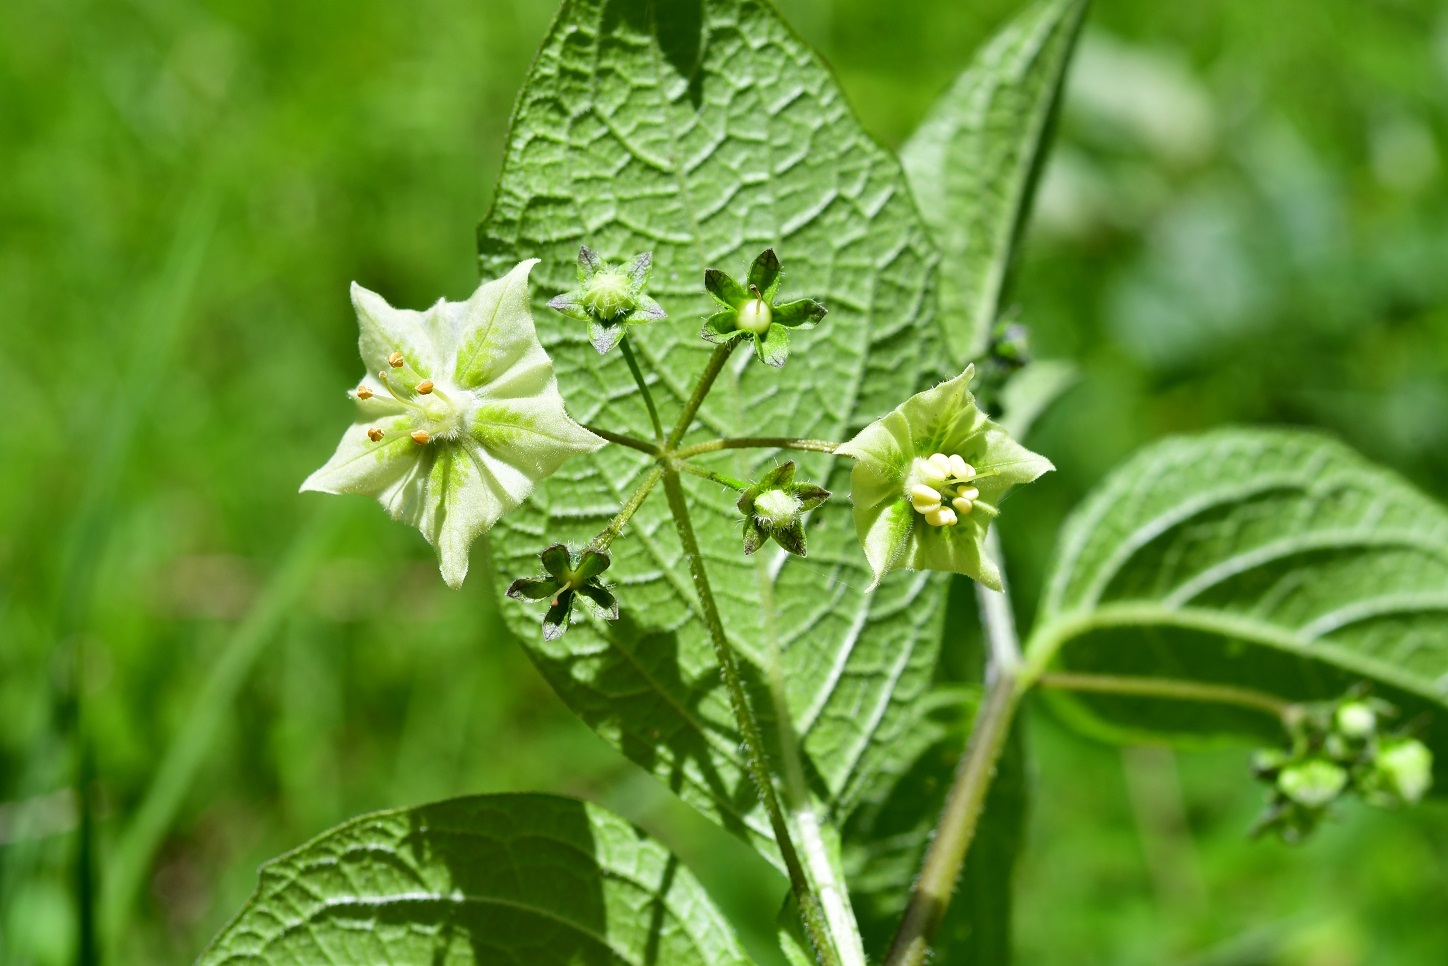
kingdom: Plantae
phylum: Tracheophyta
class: Magnoliopsida
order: Solanales
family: Solanaceae
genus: Jaltomata
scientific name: Jaltomata procumbens
